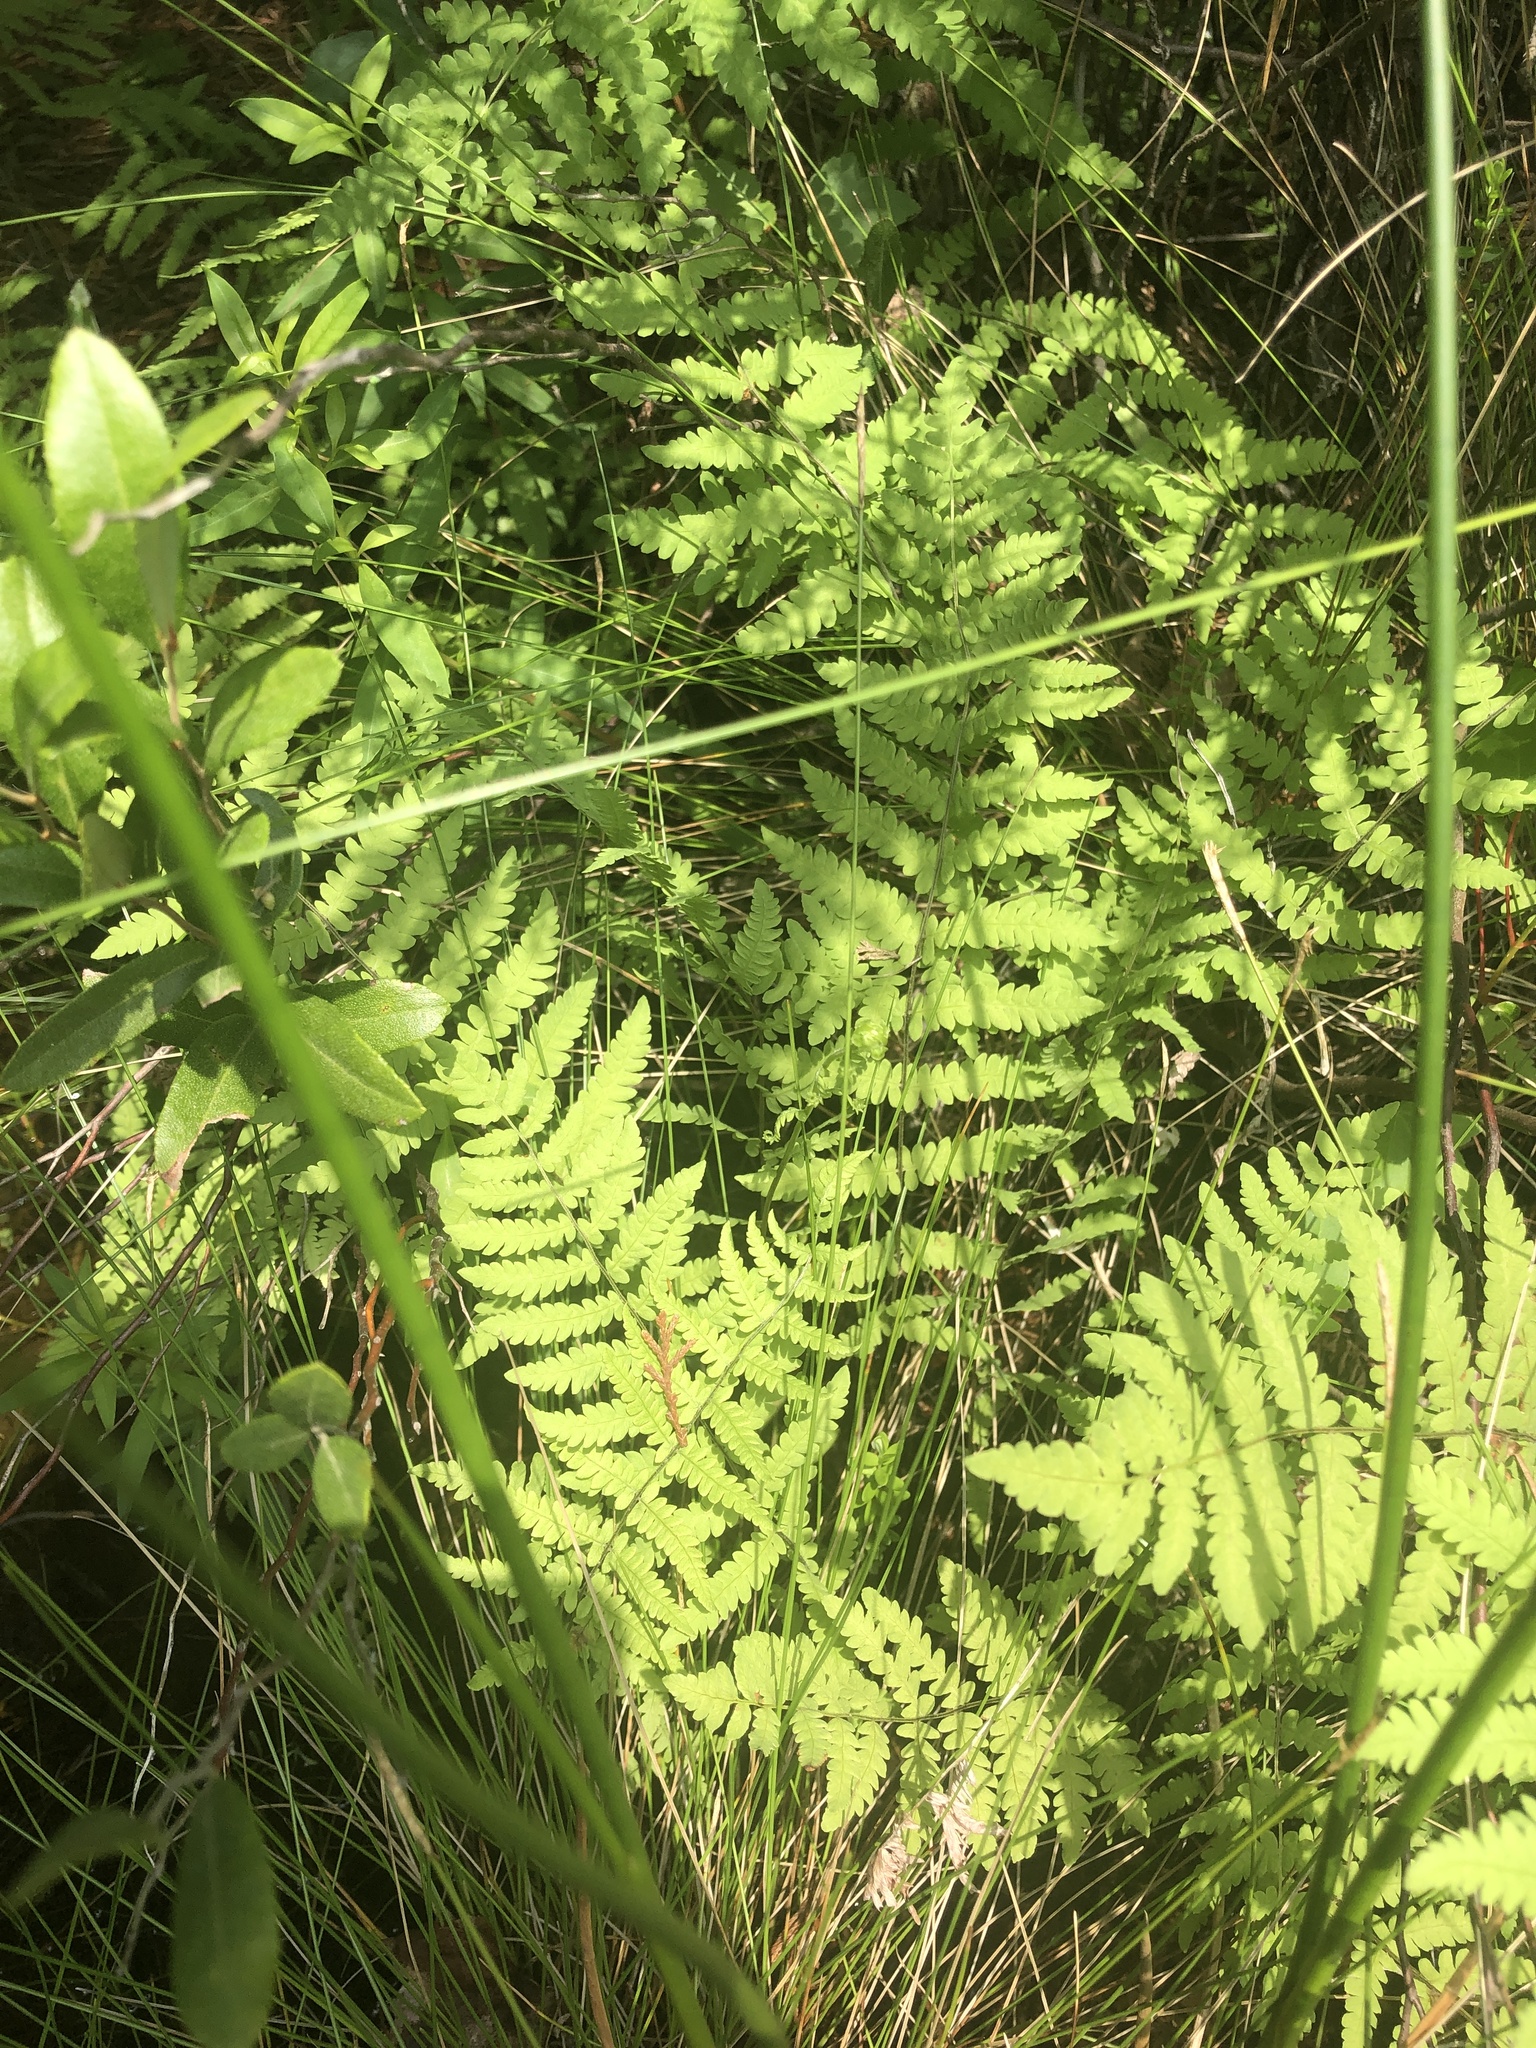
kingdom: Plantae
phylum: Tracheophyta
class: Polypodiopsida
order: Polypodiales
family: Thelypteridaceae
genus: Thelypteris
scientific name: Thelypteris palustris
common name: Marsh fern
